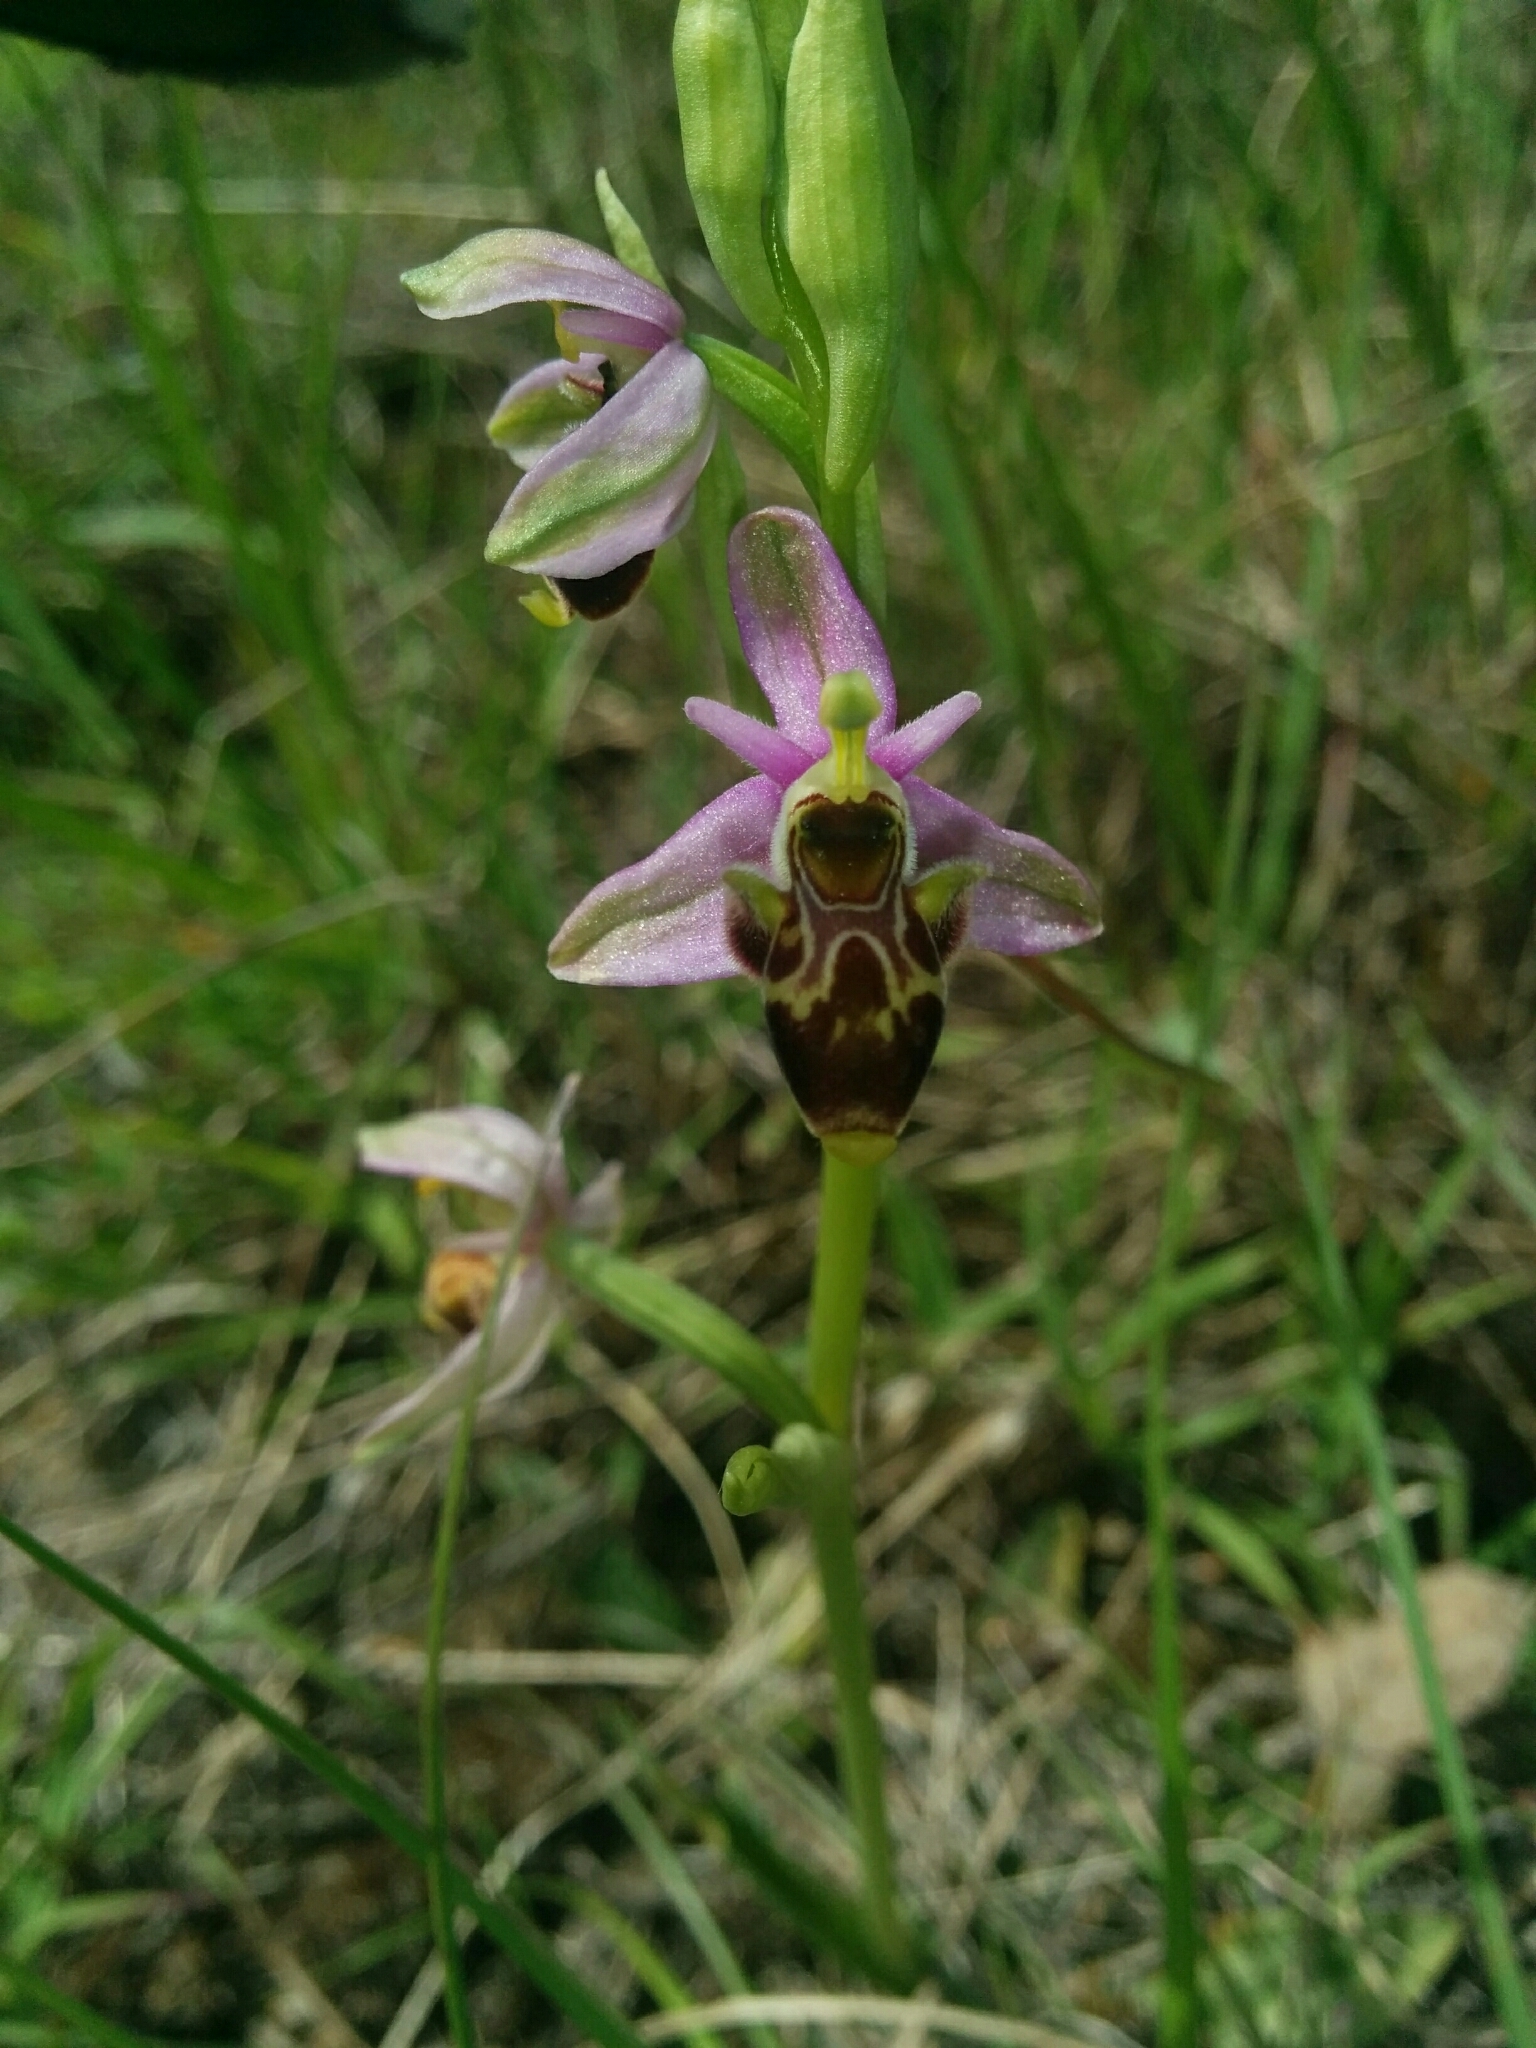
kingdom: Plantae
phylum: Tracheophyta
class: Liliopsida
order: Asparagales
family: Orchidaceae
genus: Ophrys
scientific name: Ophrys scolopax
